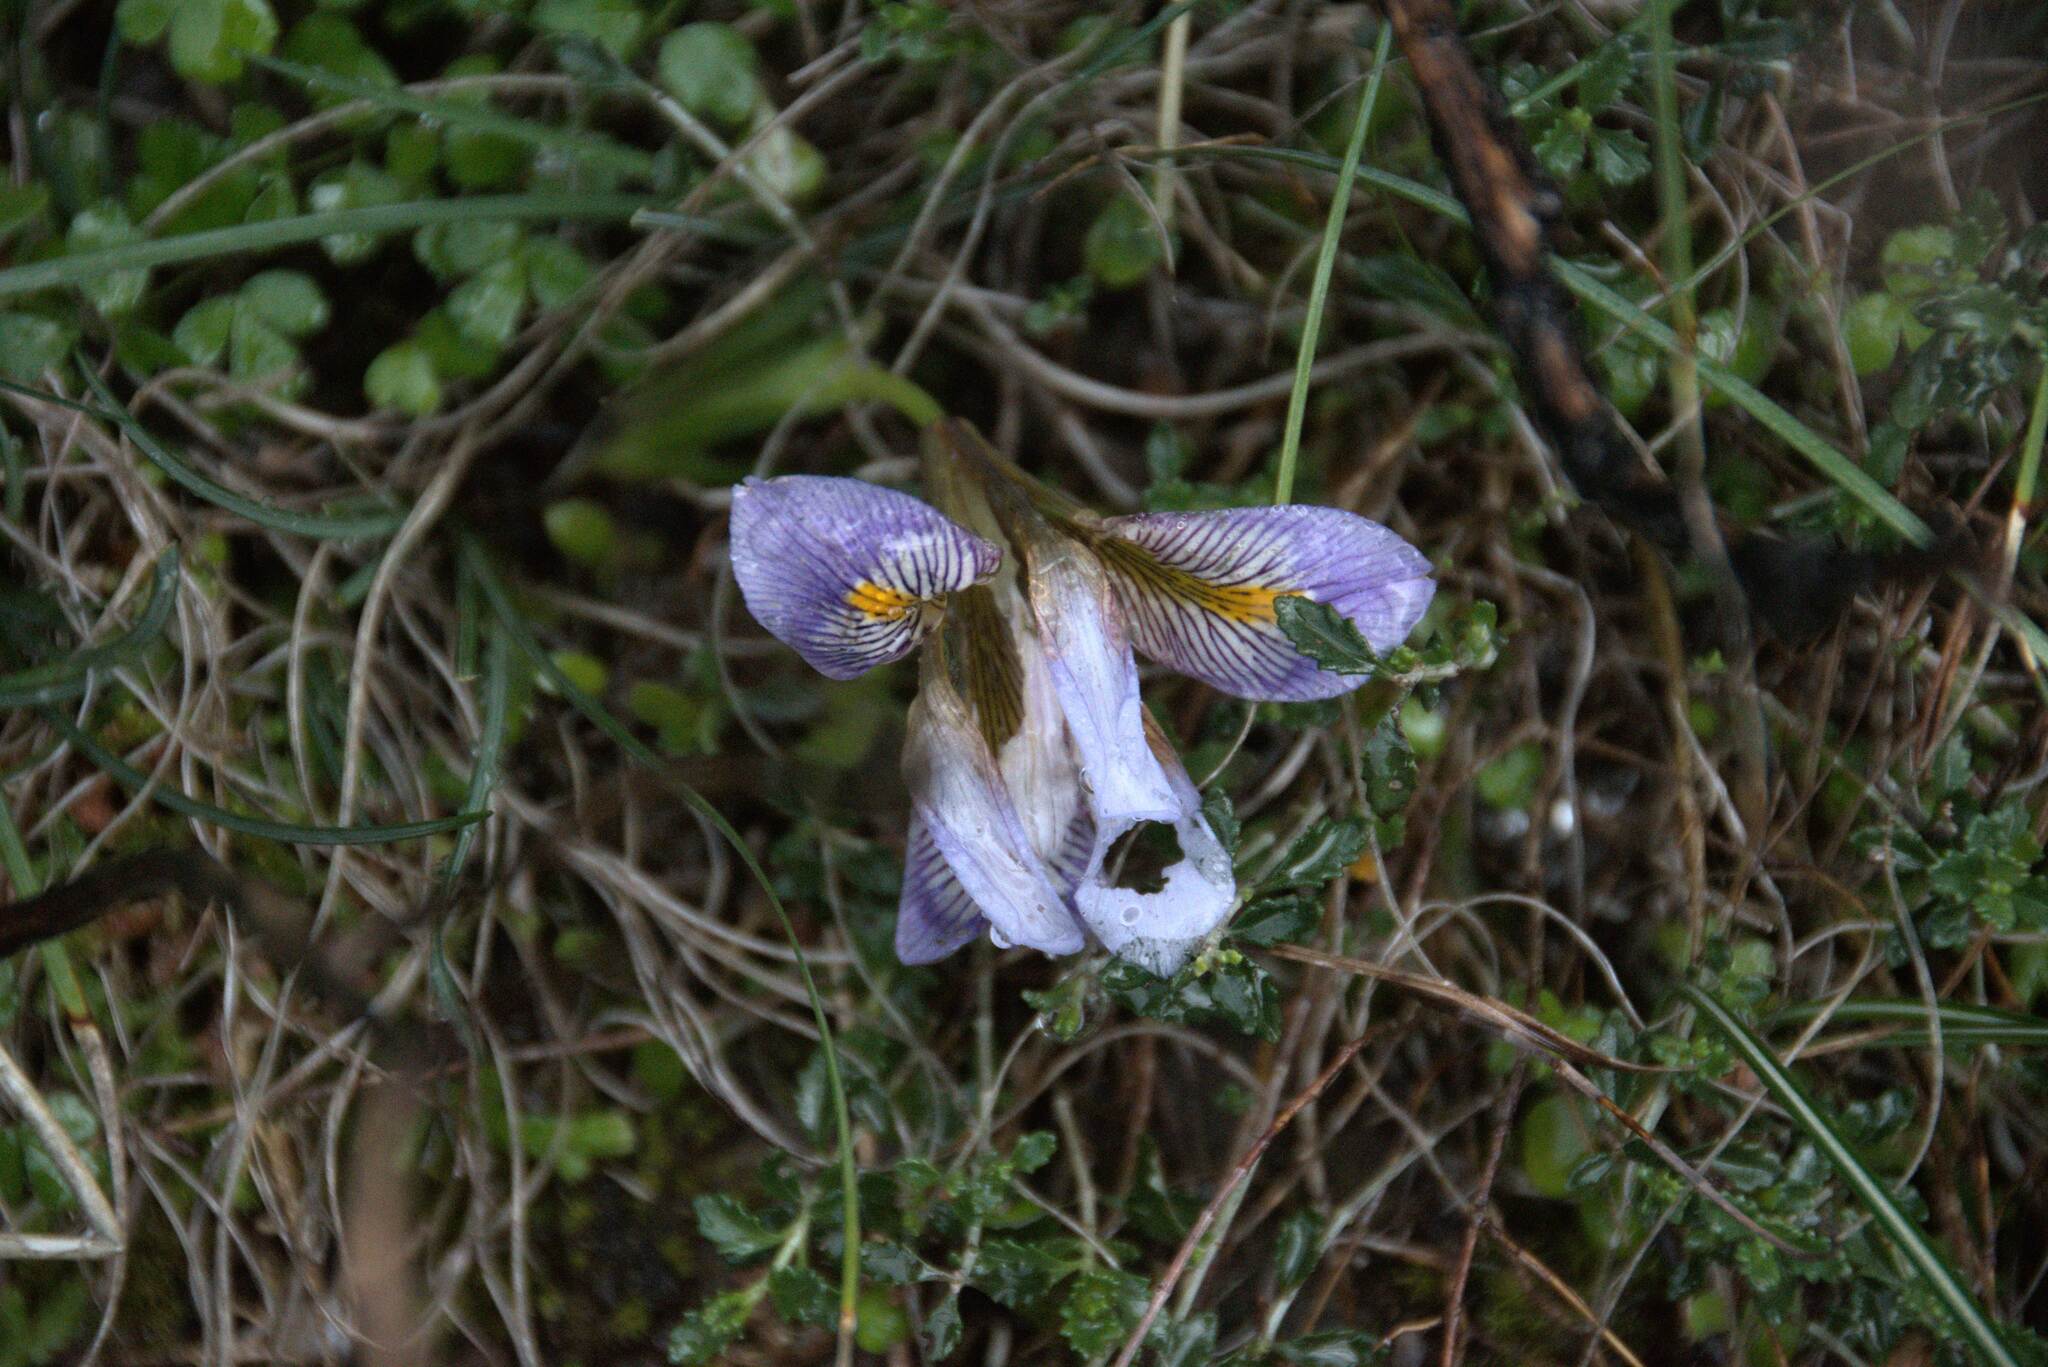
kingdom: Plantae
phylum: Tracheophyta
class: Liliopsida
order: Asparagales
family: Iridaceae
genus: Iris
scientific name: Iris unguicularis
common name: Algerian iris
